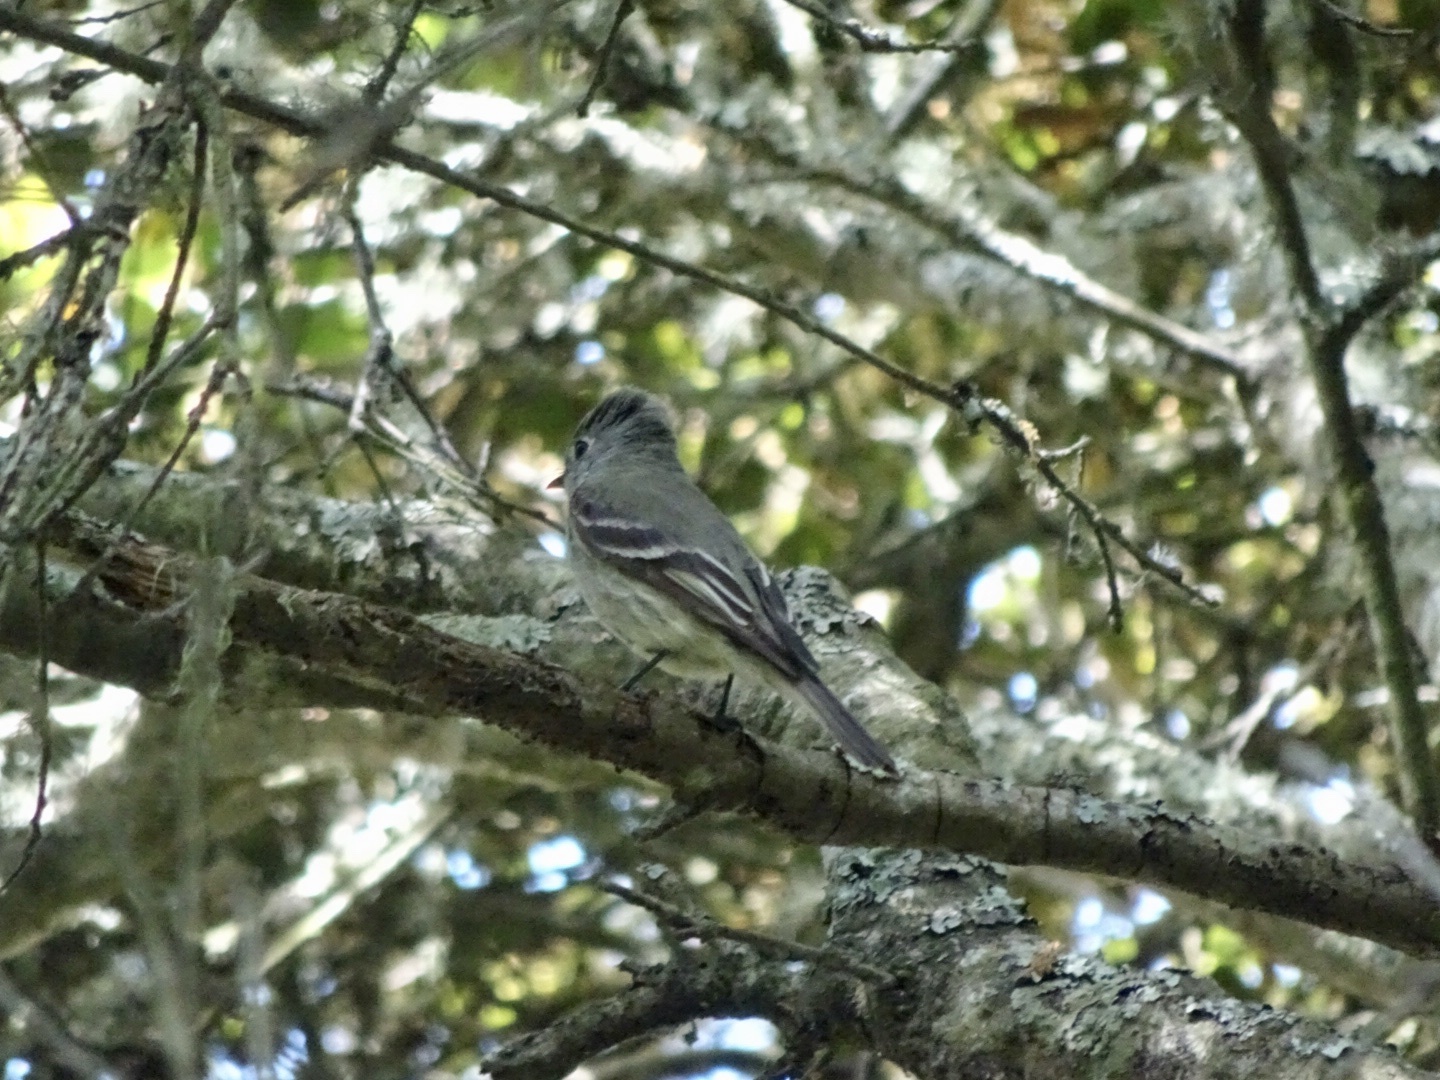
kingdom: Animalia
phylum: Chordata
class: Aves
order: Passeriformes
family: Tyrannidae
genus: Empidonax
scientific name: Empidonax difficilis
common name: Pacific-slope flycatcher
